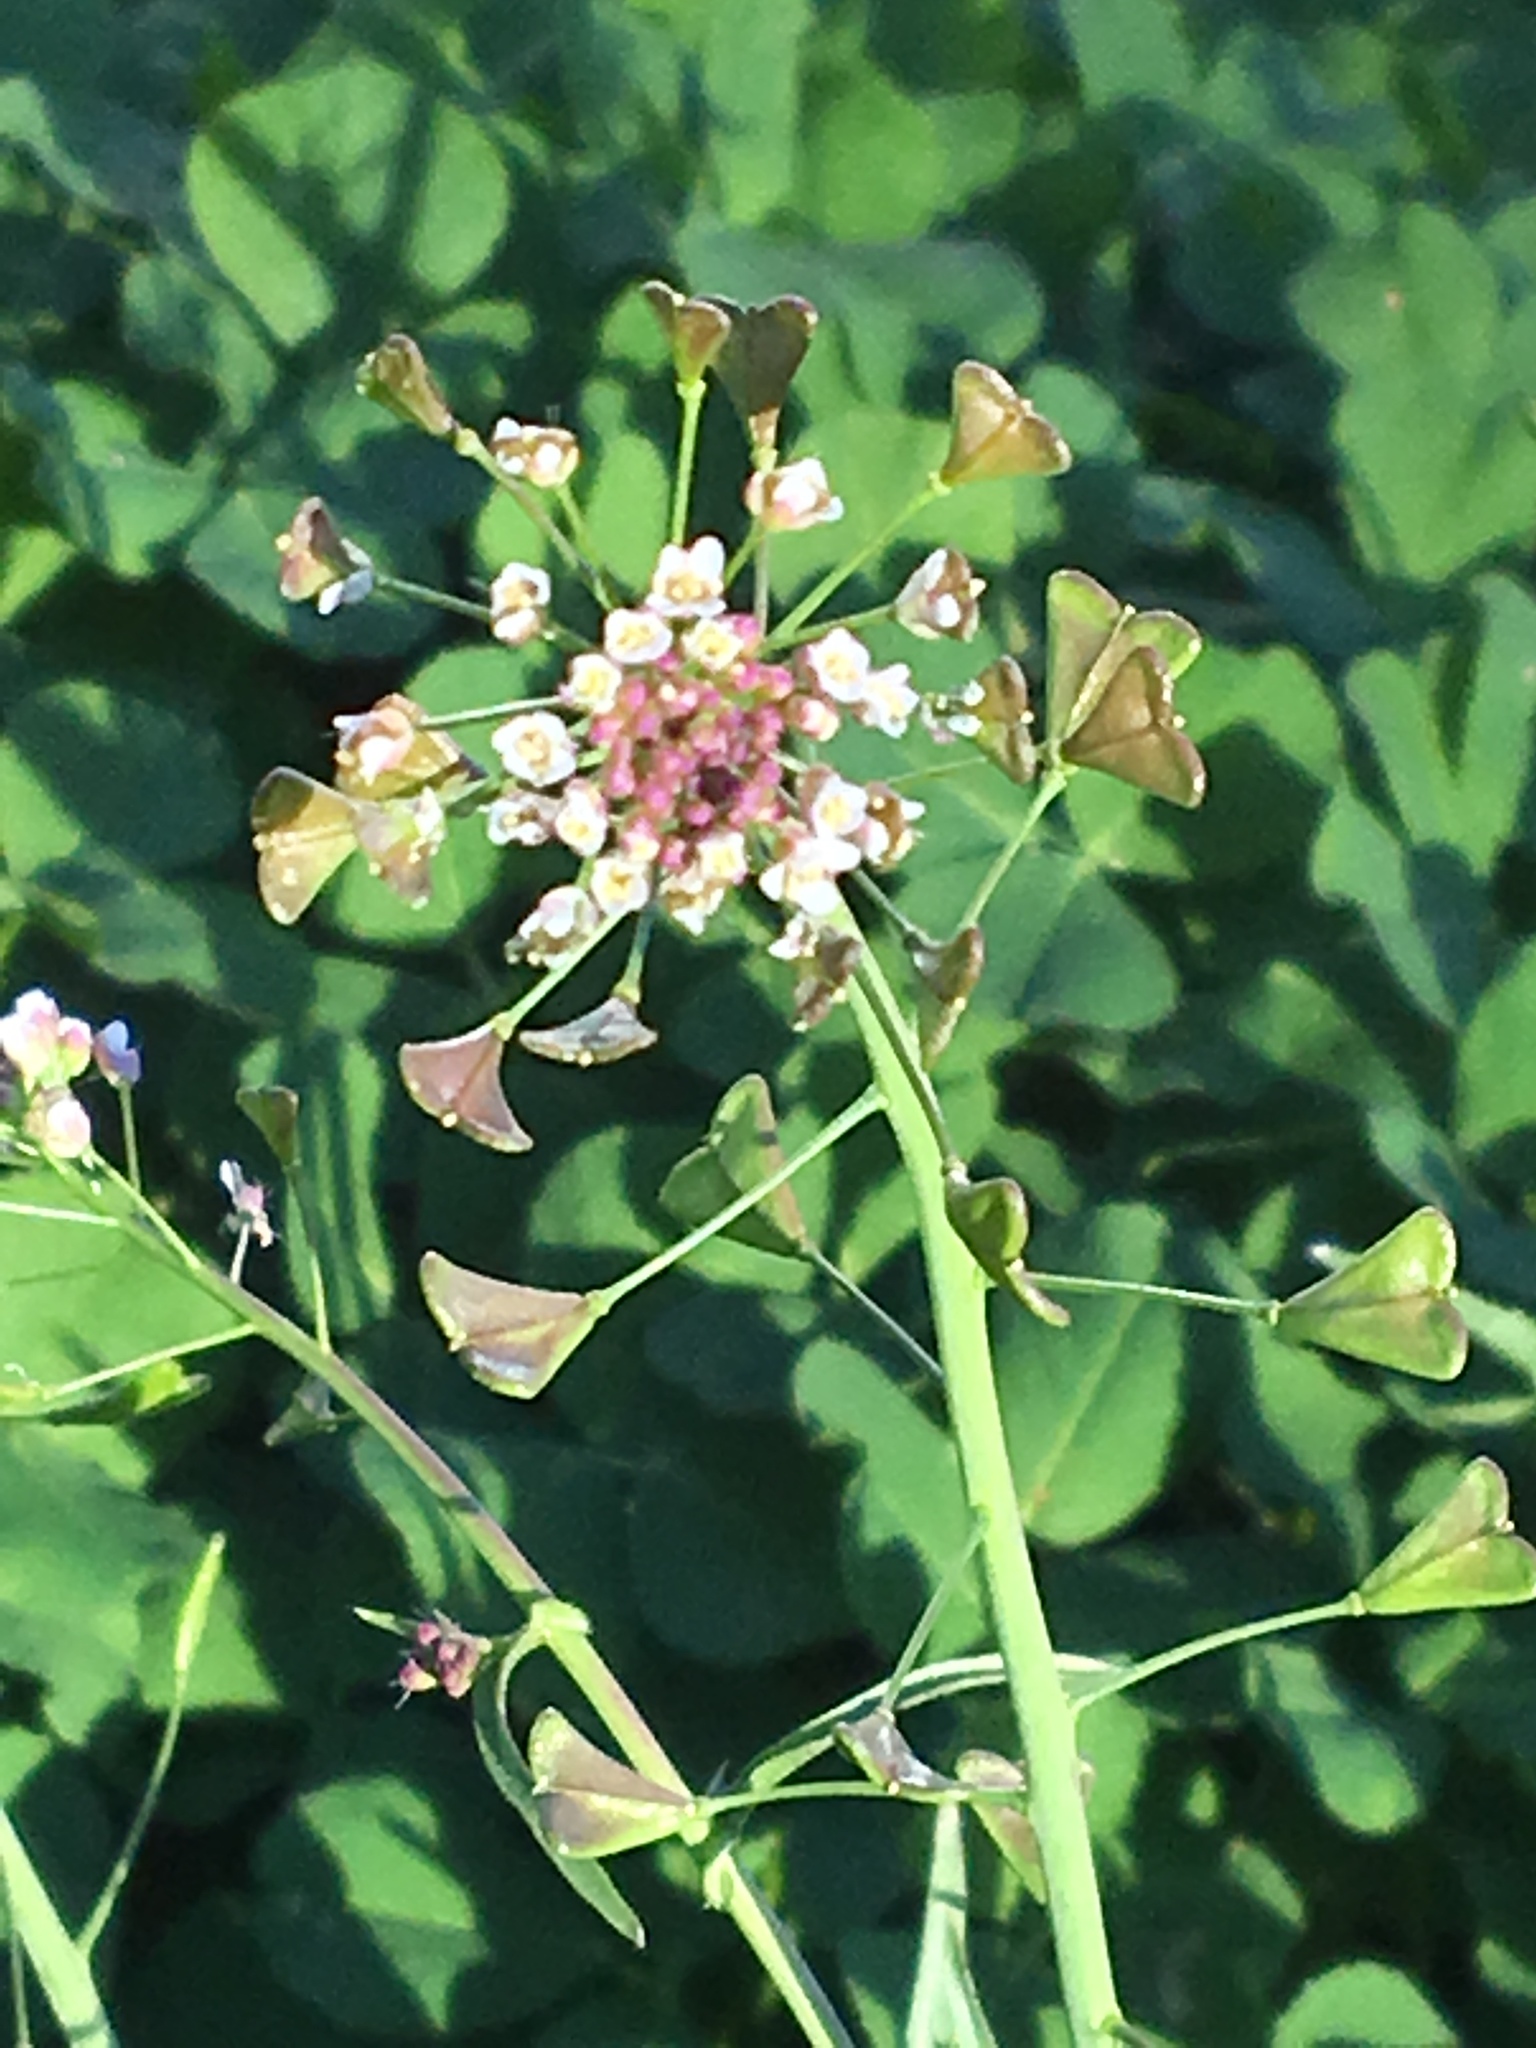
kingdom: Plantae
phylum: Tracheophyta
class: Magnoliopsida
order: Brassicales
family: Brassicaceae
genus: Capsella
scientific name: Capsella bursa-pastoris
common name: Shepherd's purse
